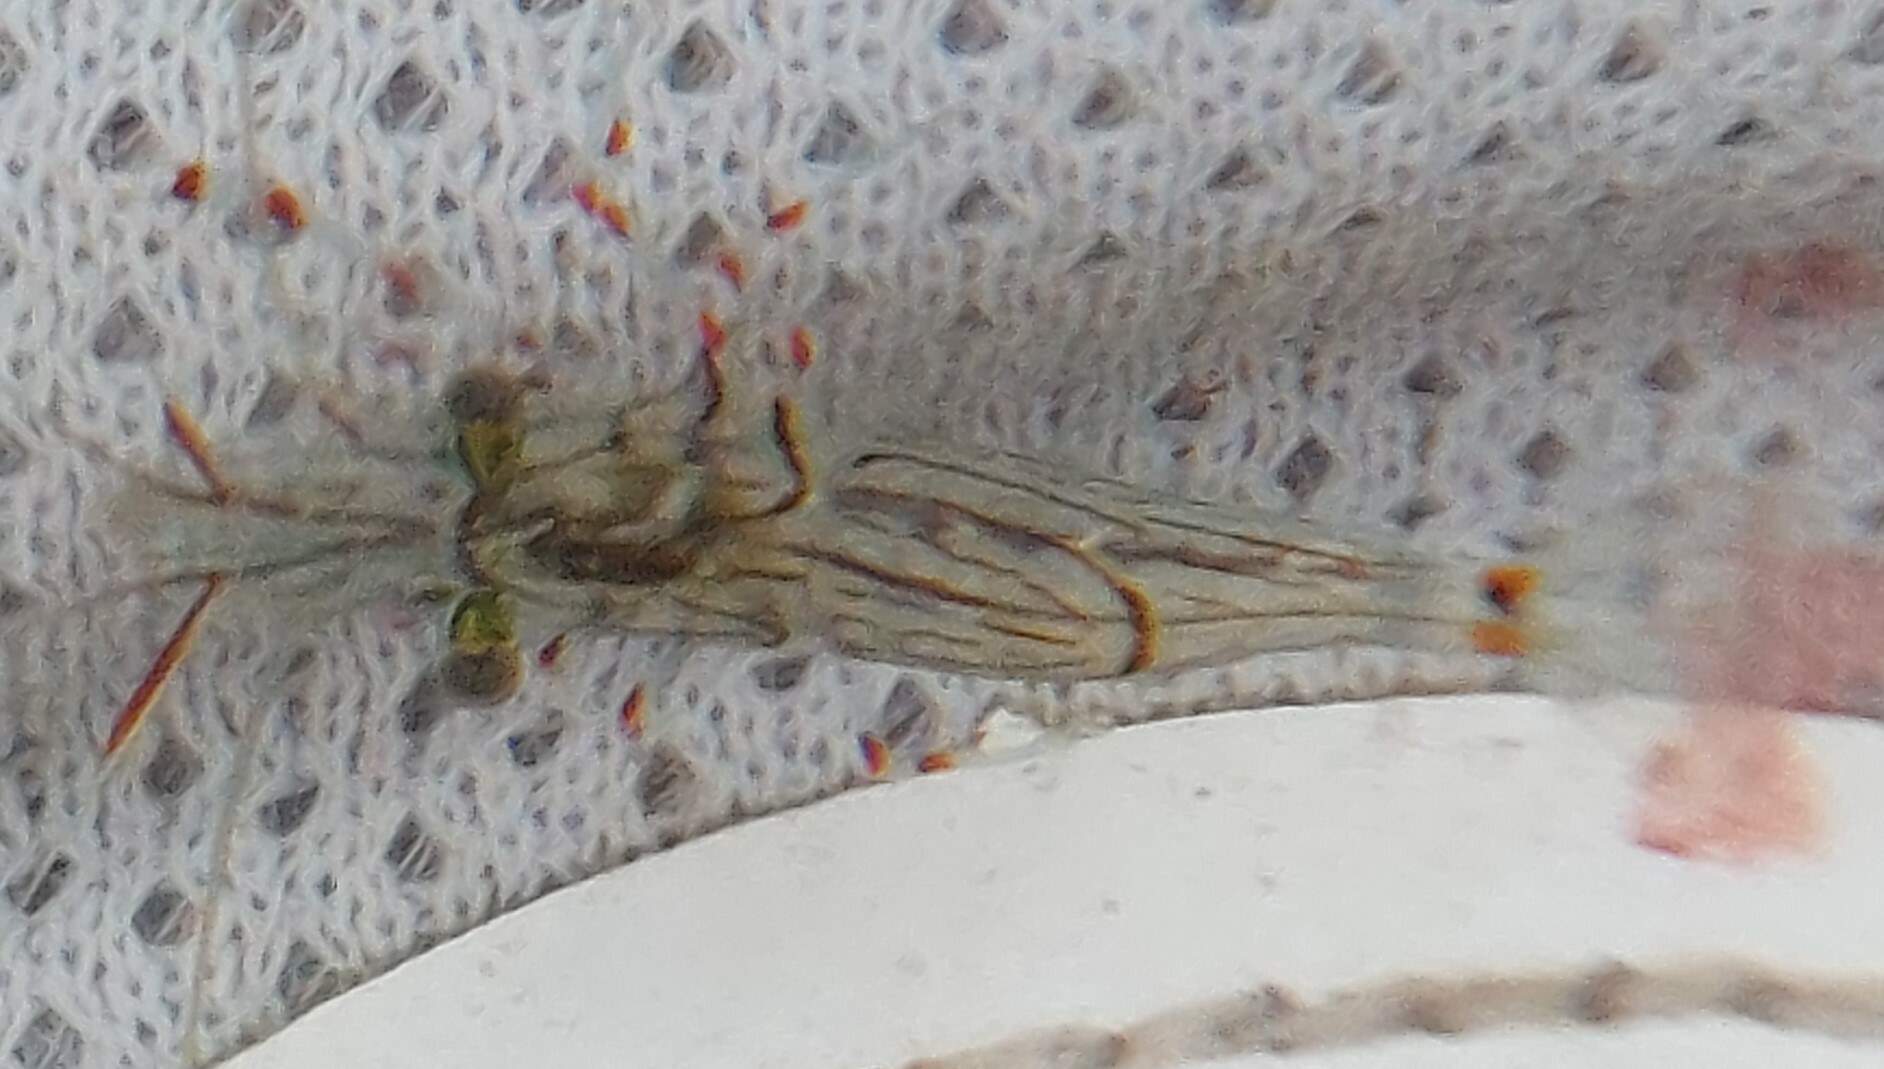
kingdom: Animalia
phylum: Arthropoda
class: Malacostraca
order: Decapoda
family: Palaemonidae
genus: Palaemon
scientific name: Palaemon affinis
